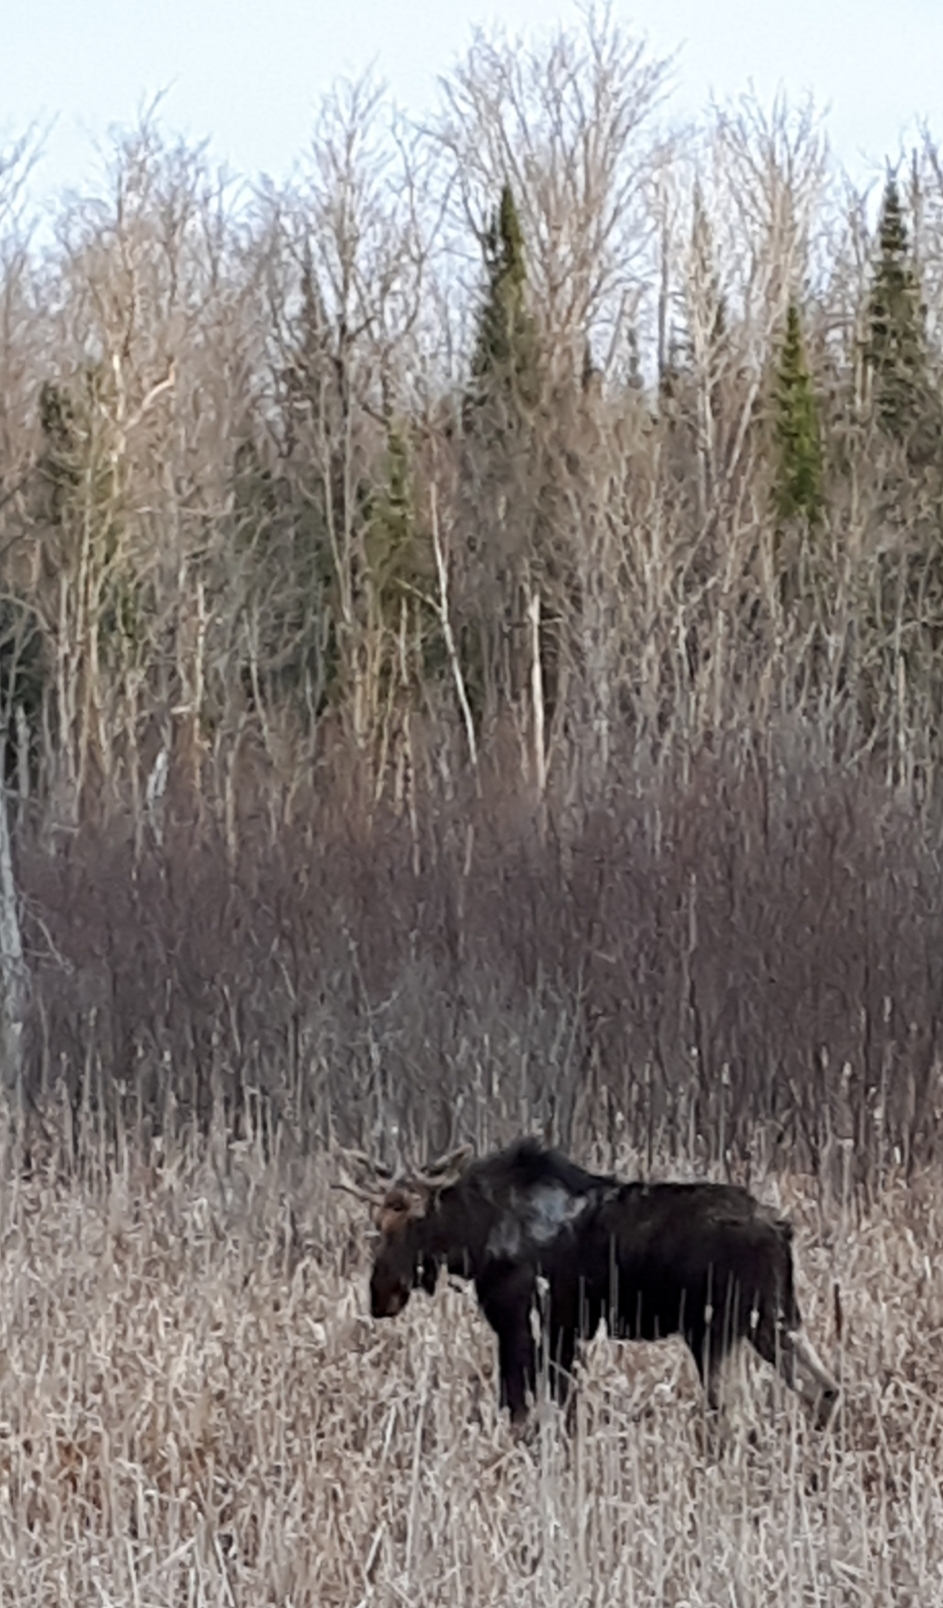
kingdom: Animalia
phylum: Chordata
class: Mammalia
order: Artiodactyla
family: Cervidae
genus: Alces
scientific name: Alces alces
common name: Moose
